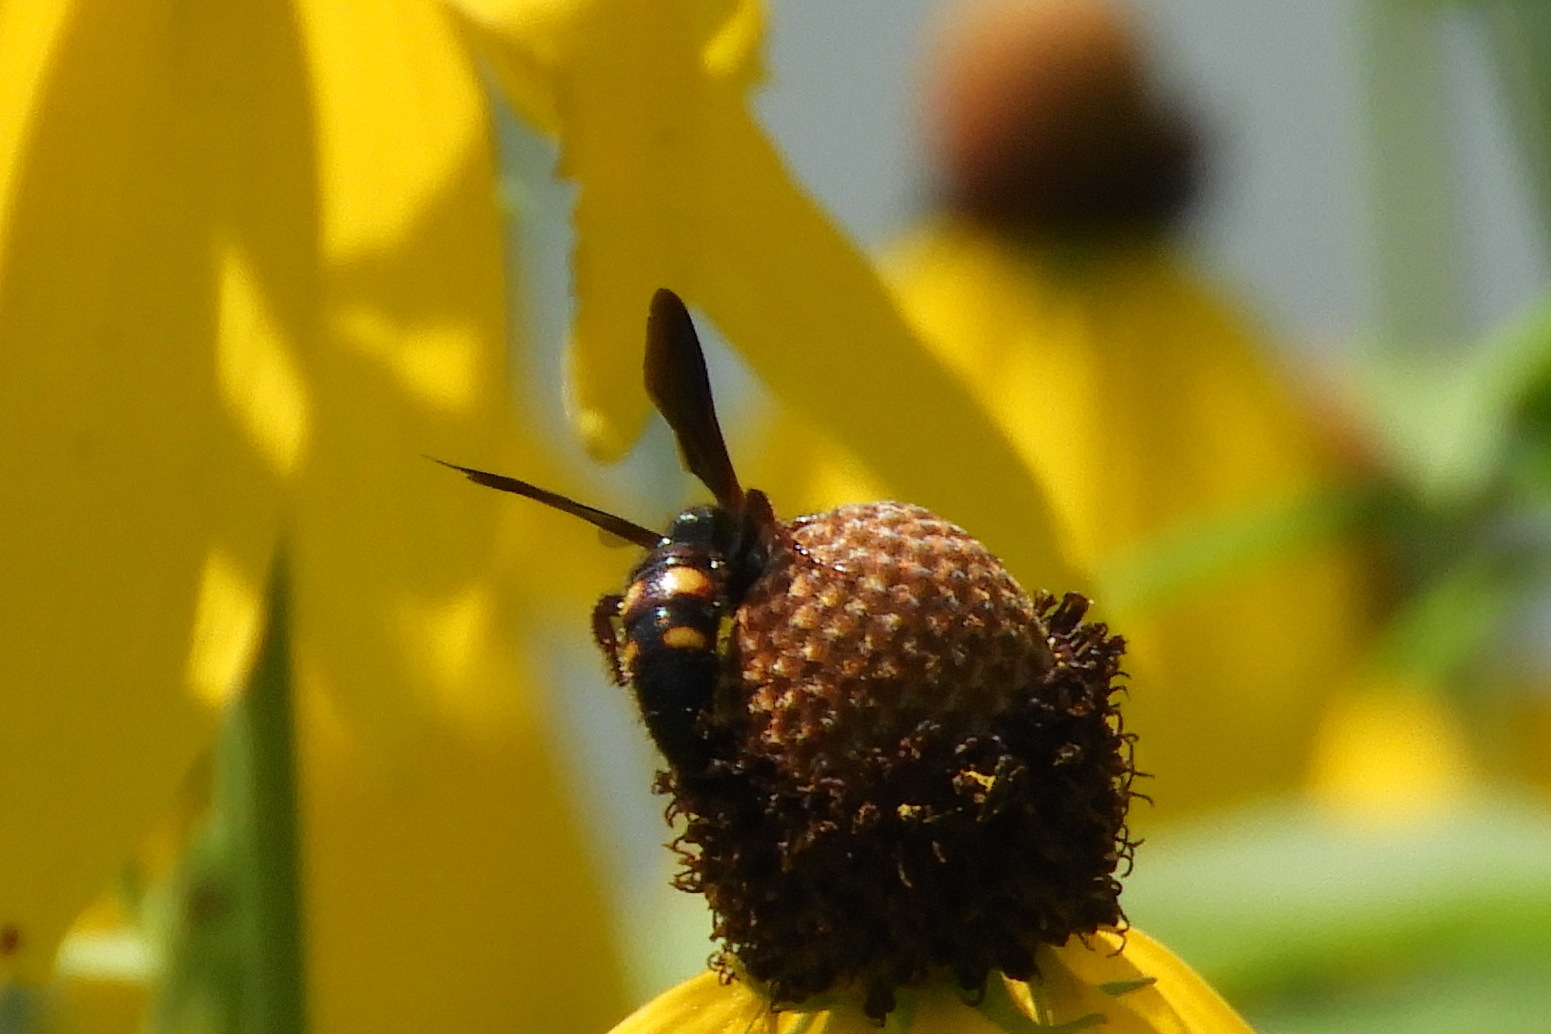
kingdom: Animalia
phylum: Arthropoda
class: Insecta
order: Hymenoptera
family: Scoliidae
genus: Scolia
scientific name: Scolia nobilitata
